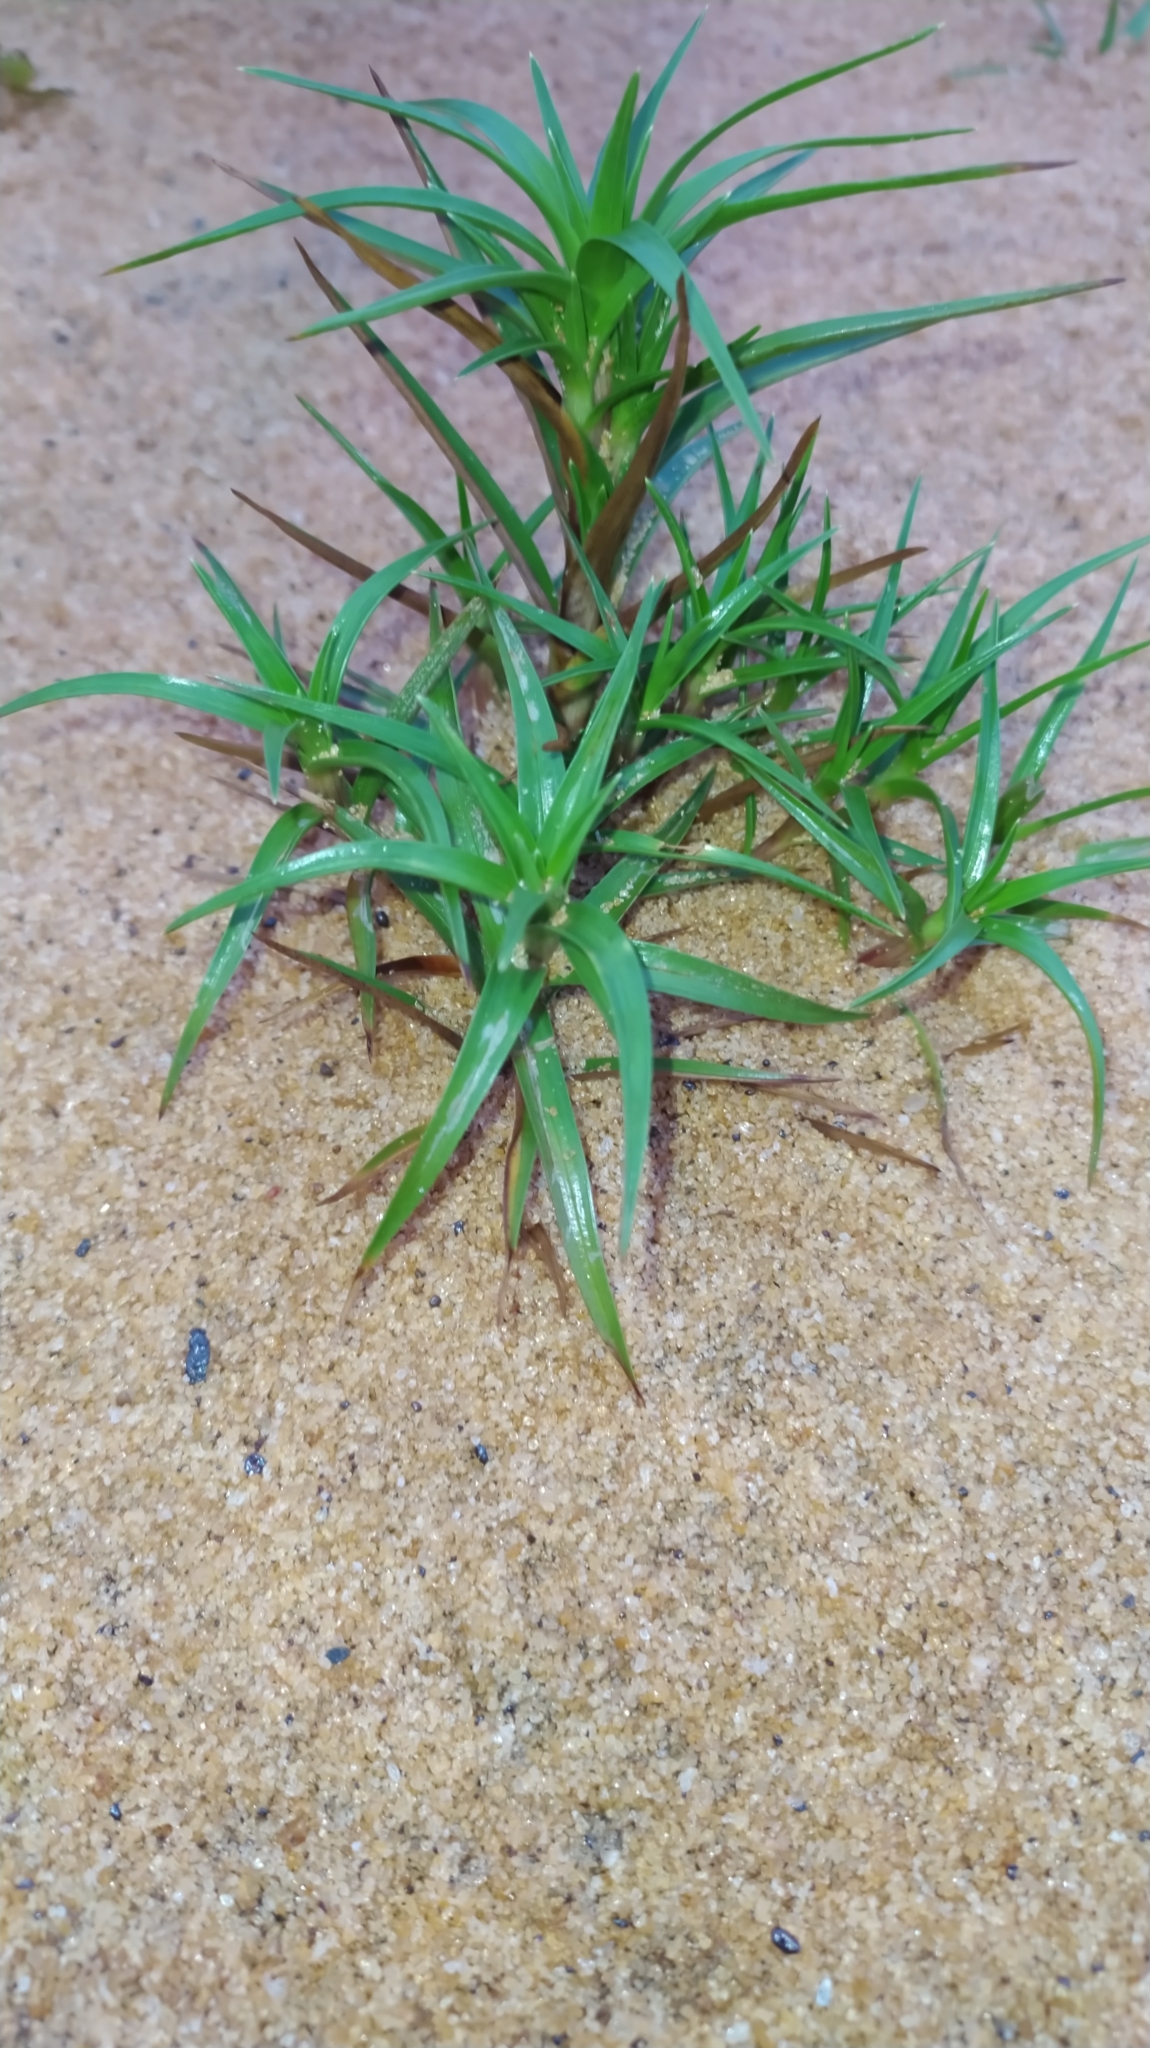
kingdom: Plantae
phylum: Tracheophyta
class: Liliopsida
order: Poales
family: Cyperaceae
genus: Cyperus
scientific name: Cyperus pedunculatus
